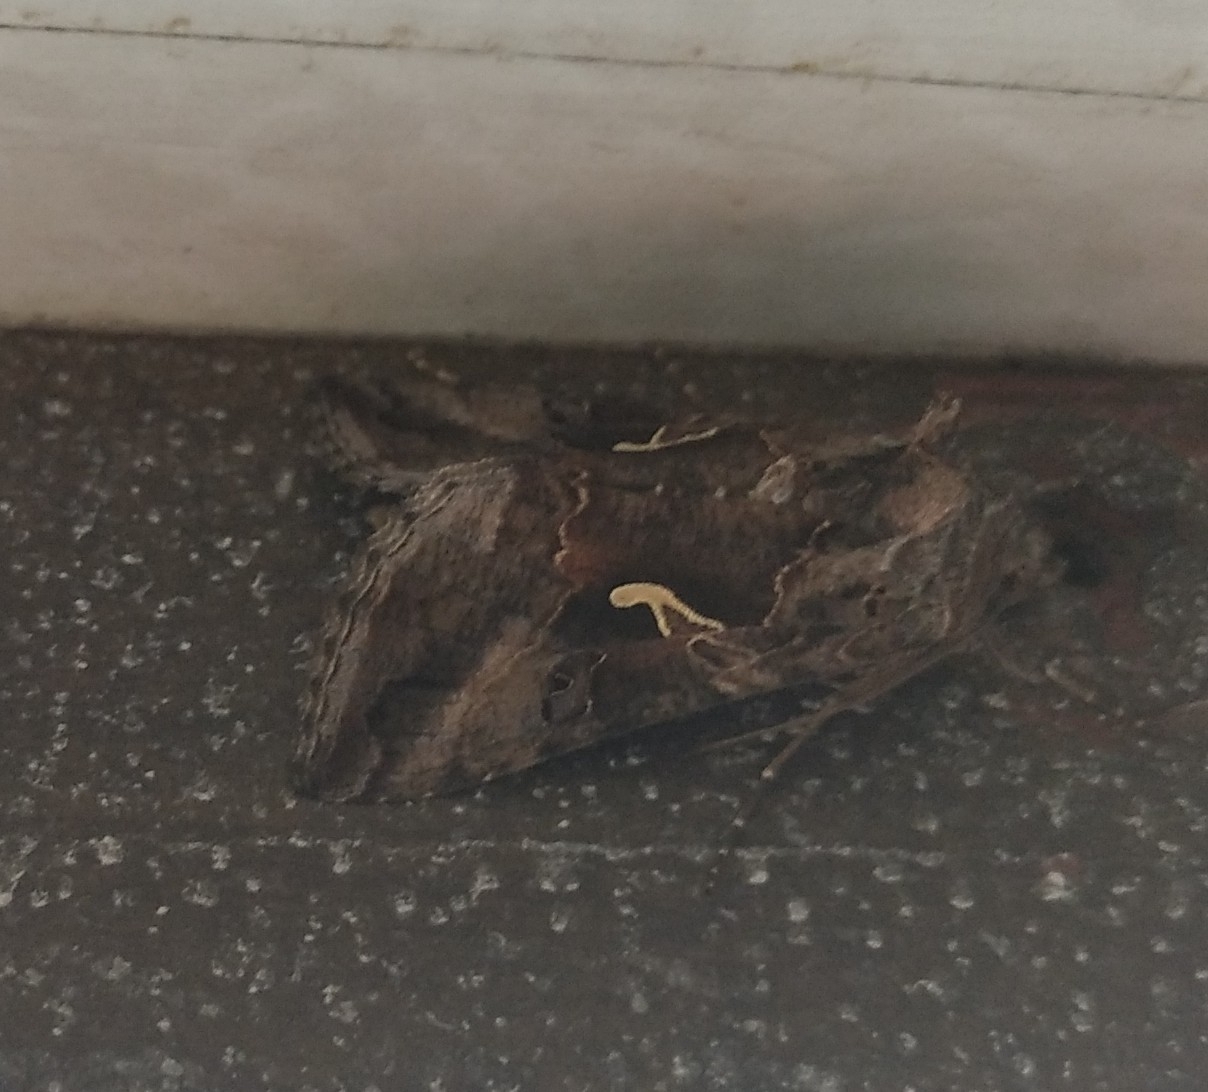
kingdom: Animalia
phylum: Arthropoda
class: Insecta
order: Lepidoptera
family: Noctuidae
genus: Autographa
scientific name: Autographa gamma
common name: Silver y
